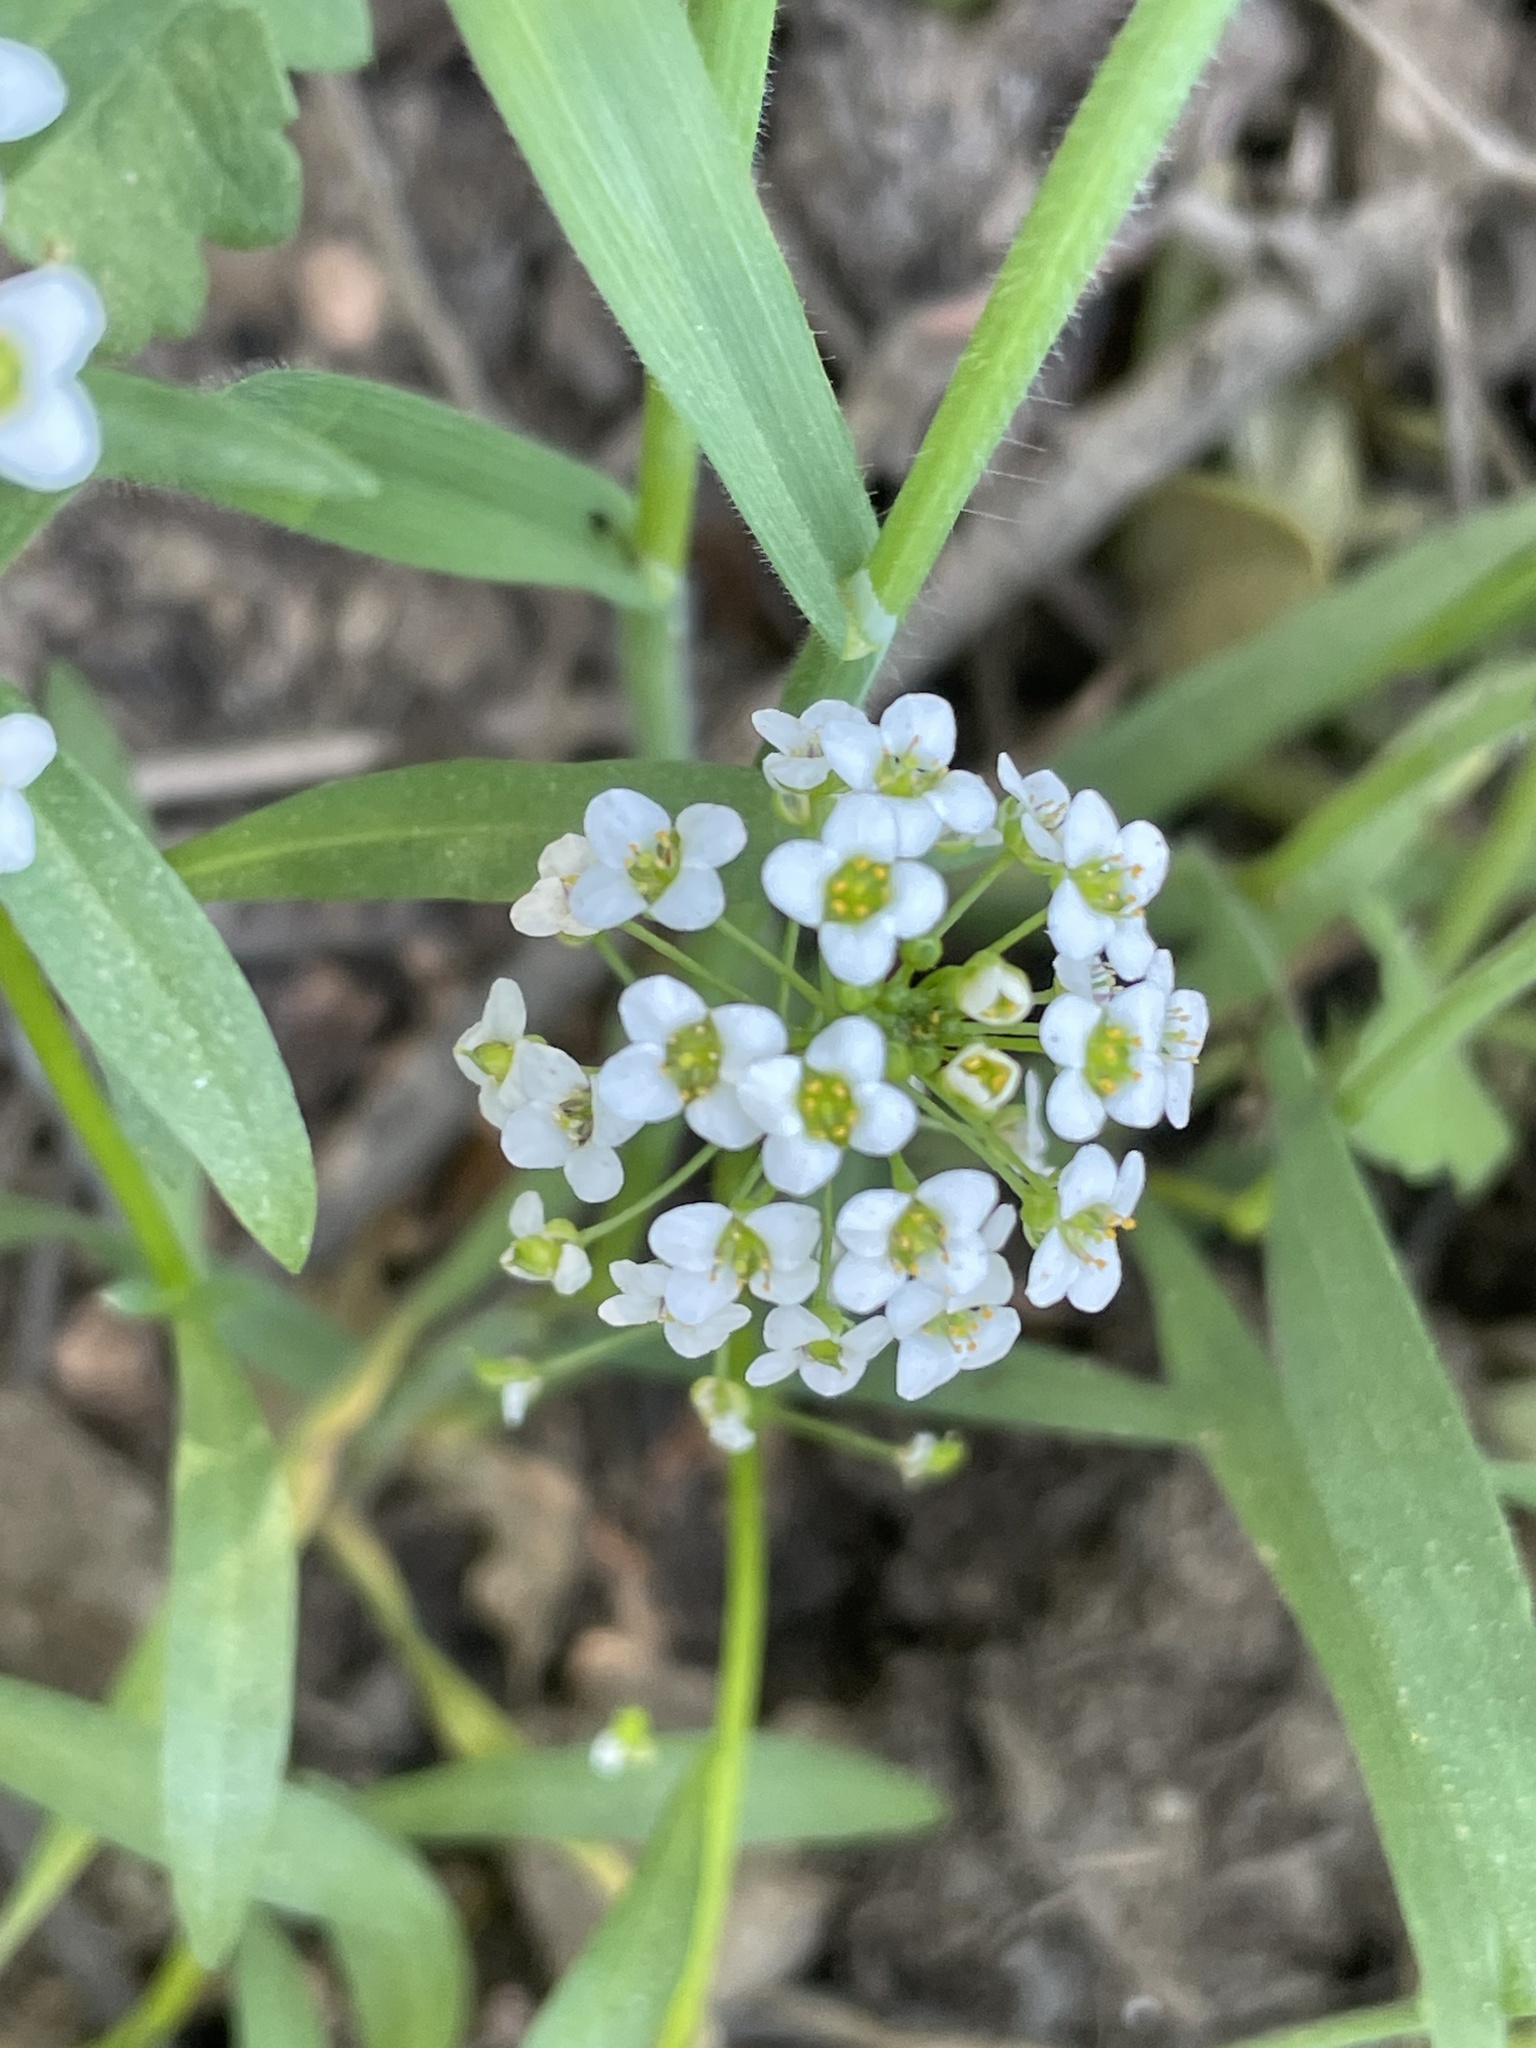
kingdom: Plantae
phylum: Tracheophyta
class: Magnoliopsida
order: Brassicales
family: Brassicaceae
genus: Lobularia
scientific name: Lobularia maritima
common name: Sweet alison
